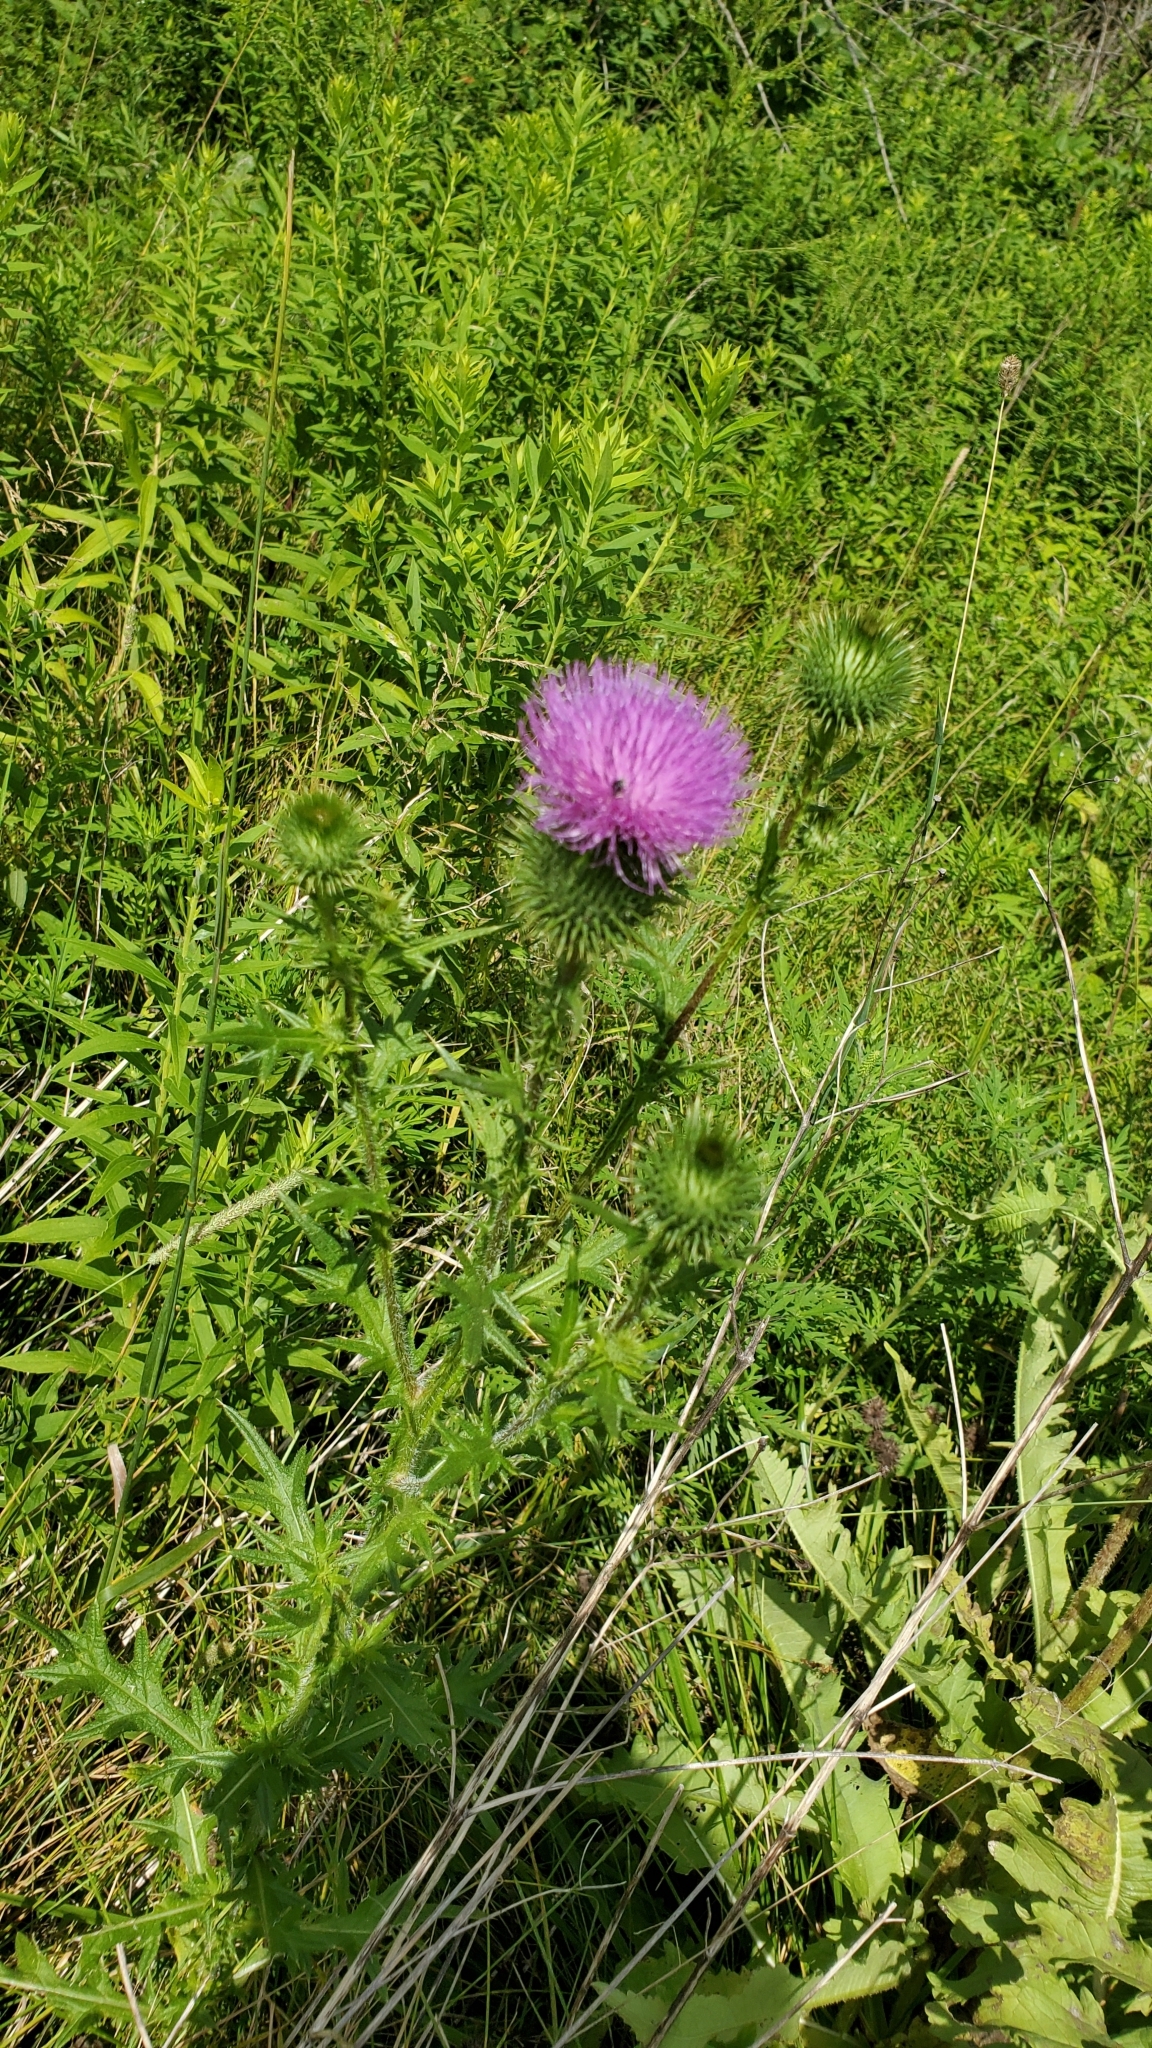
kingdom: Plantae
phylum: Tracheophyta
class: Magnoliopsida
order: Asterales
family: Asteraceae
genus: Cirsium
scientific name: Cirsium vulgare
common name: Bull thistle
